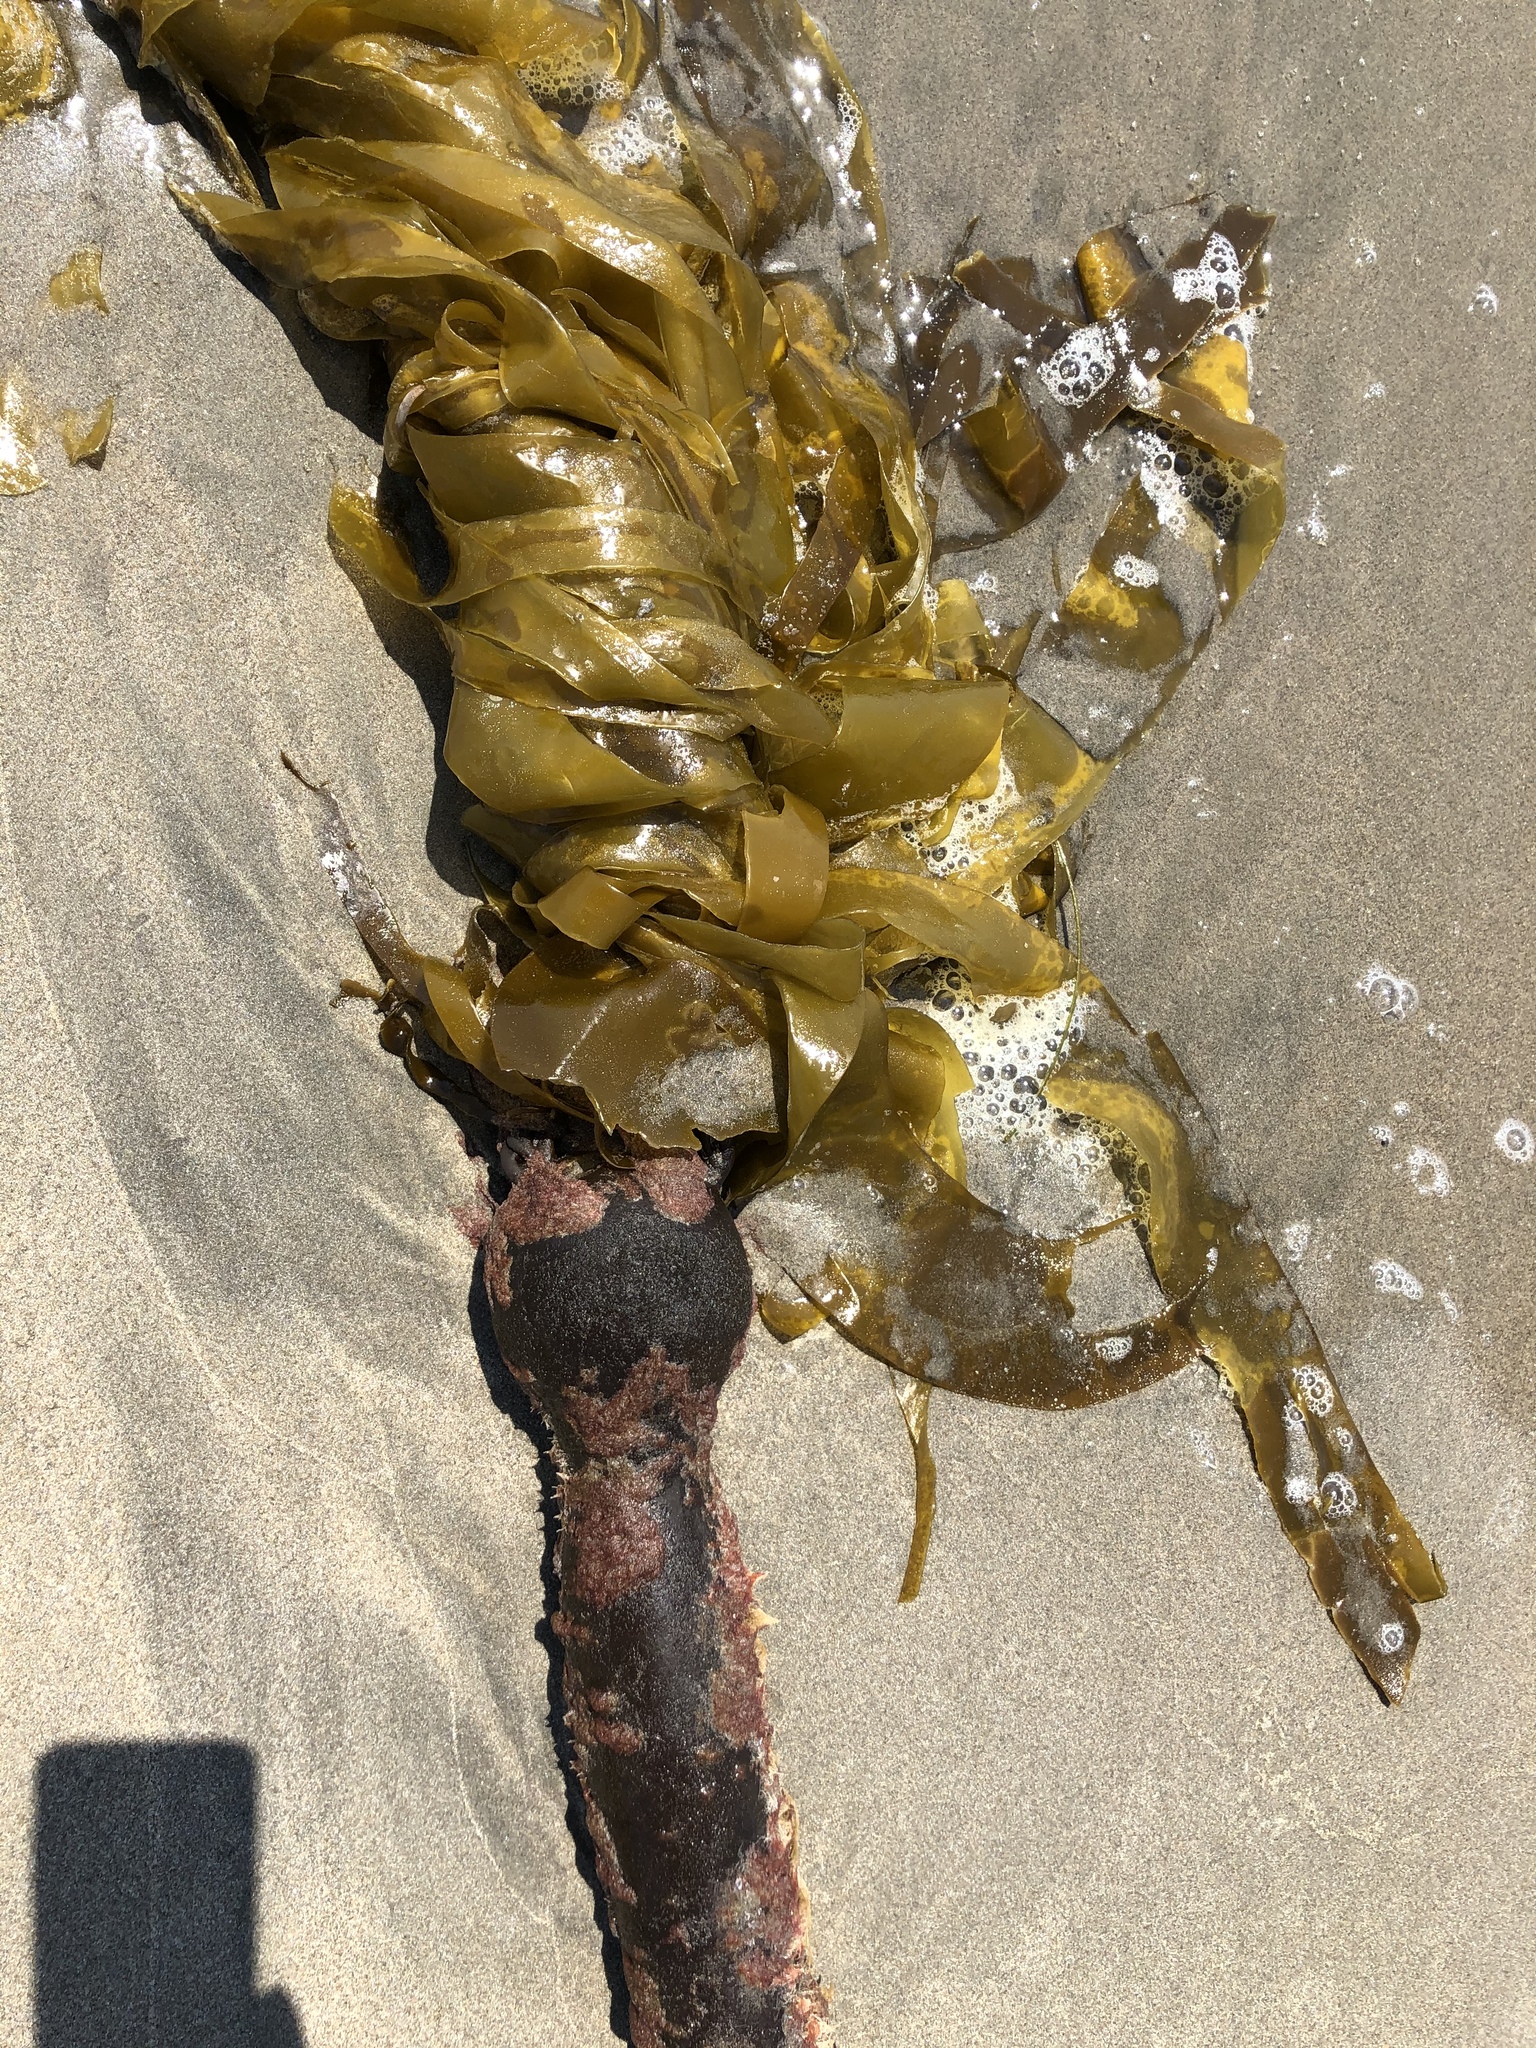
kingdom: Chromista
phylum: Ochrophyta
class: Phaeophyceae
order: Laminariales
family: Laminariaceae
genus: Nereocystis
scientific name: Nereocystis luetkeana
